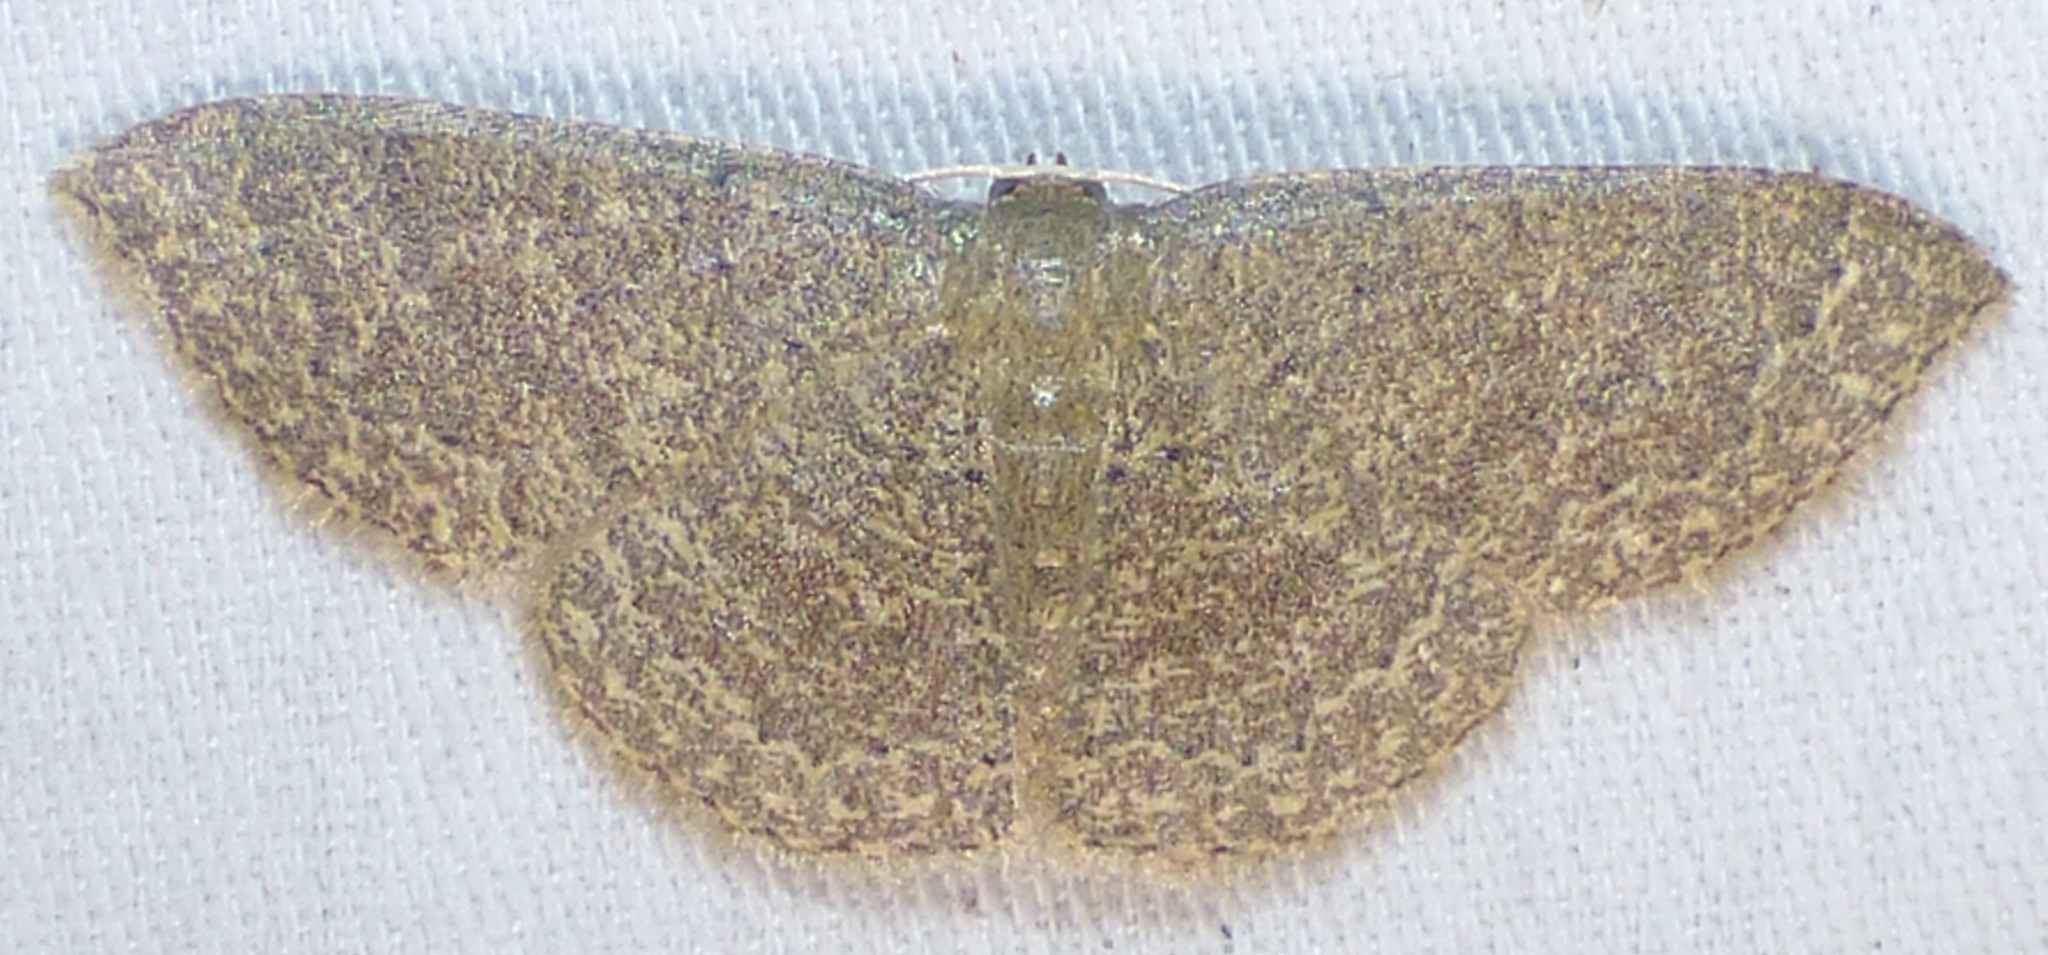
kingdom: Animalia
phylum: Arthropoda
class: Insecta
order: Lepidoptera
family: Geometridae
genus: Pleuroprucha
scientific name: Pleuroprucha insulsaria
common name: Common tan wave
